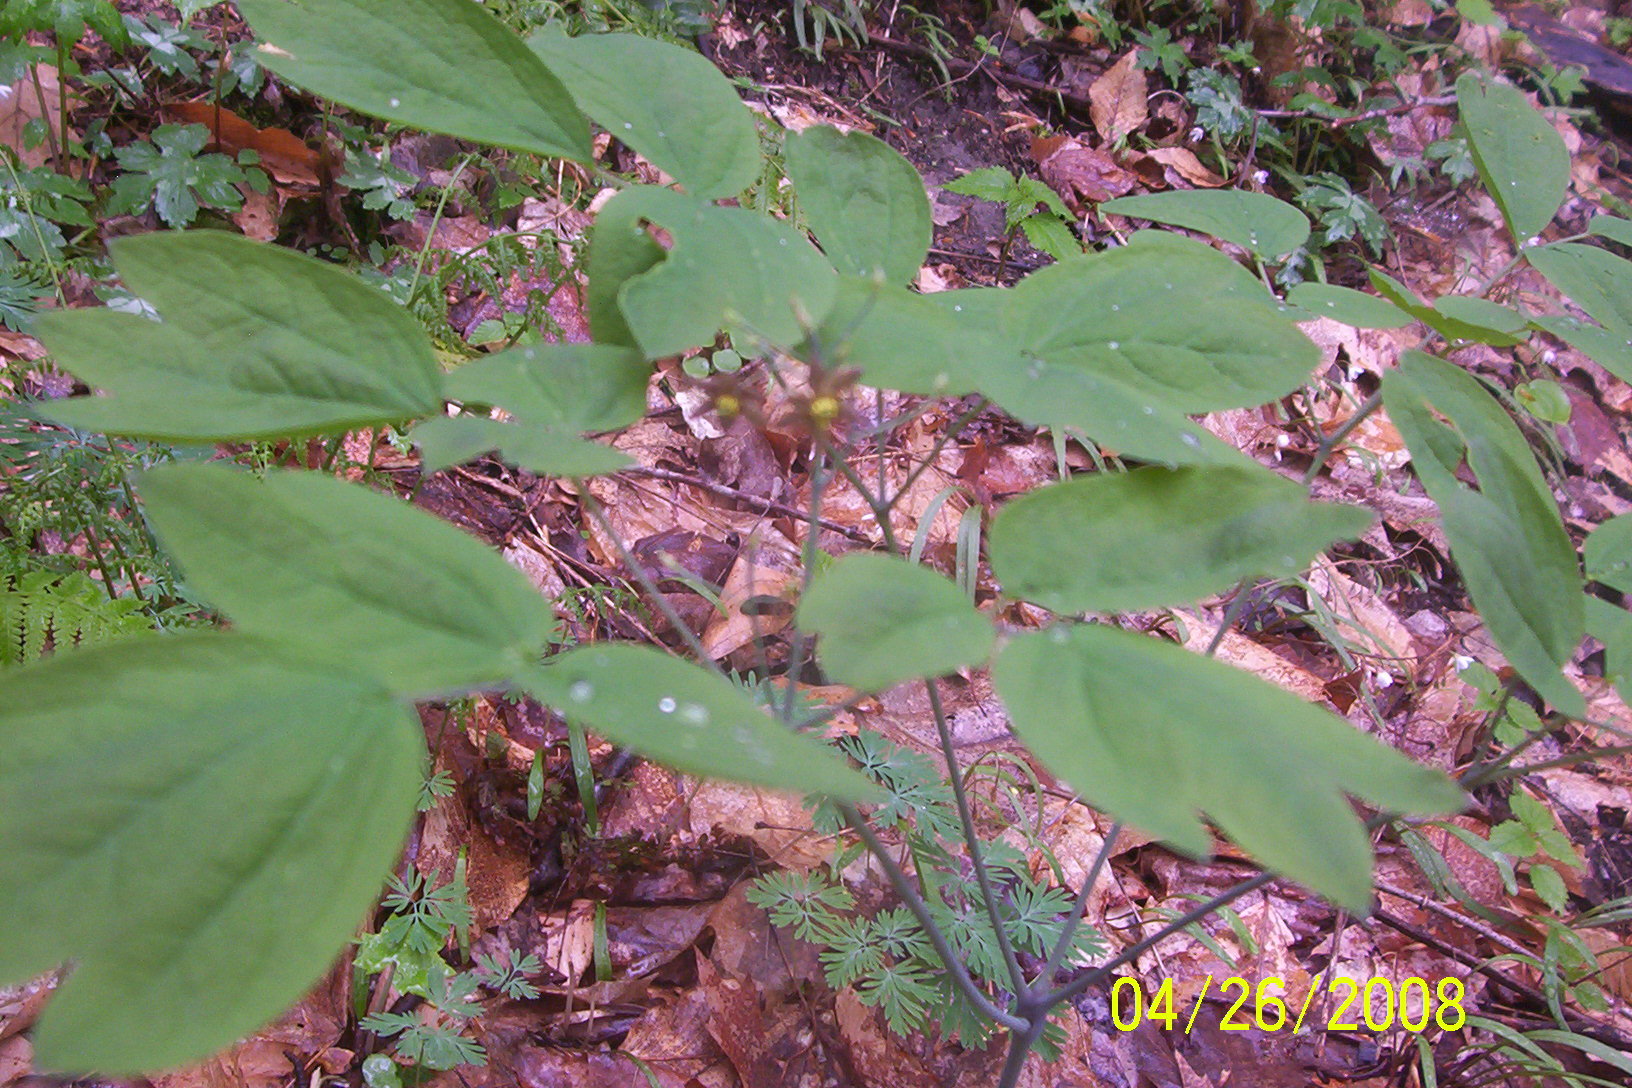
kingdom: Plantae
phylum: Tracheophyta
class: Magnoliopsida
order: Ranunculales
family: Berberidaceae
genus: Caulophyllum
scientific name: Caulophyllum thalictroides
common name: Blue cohosh
